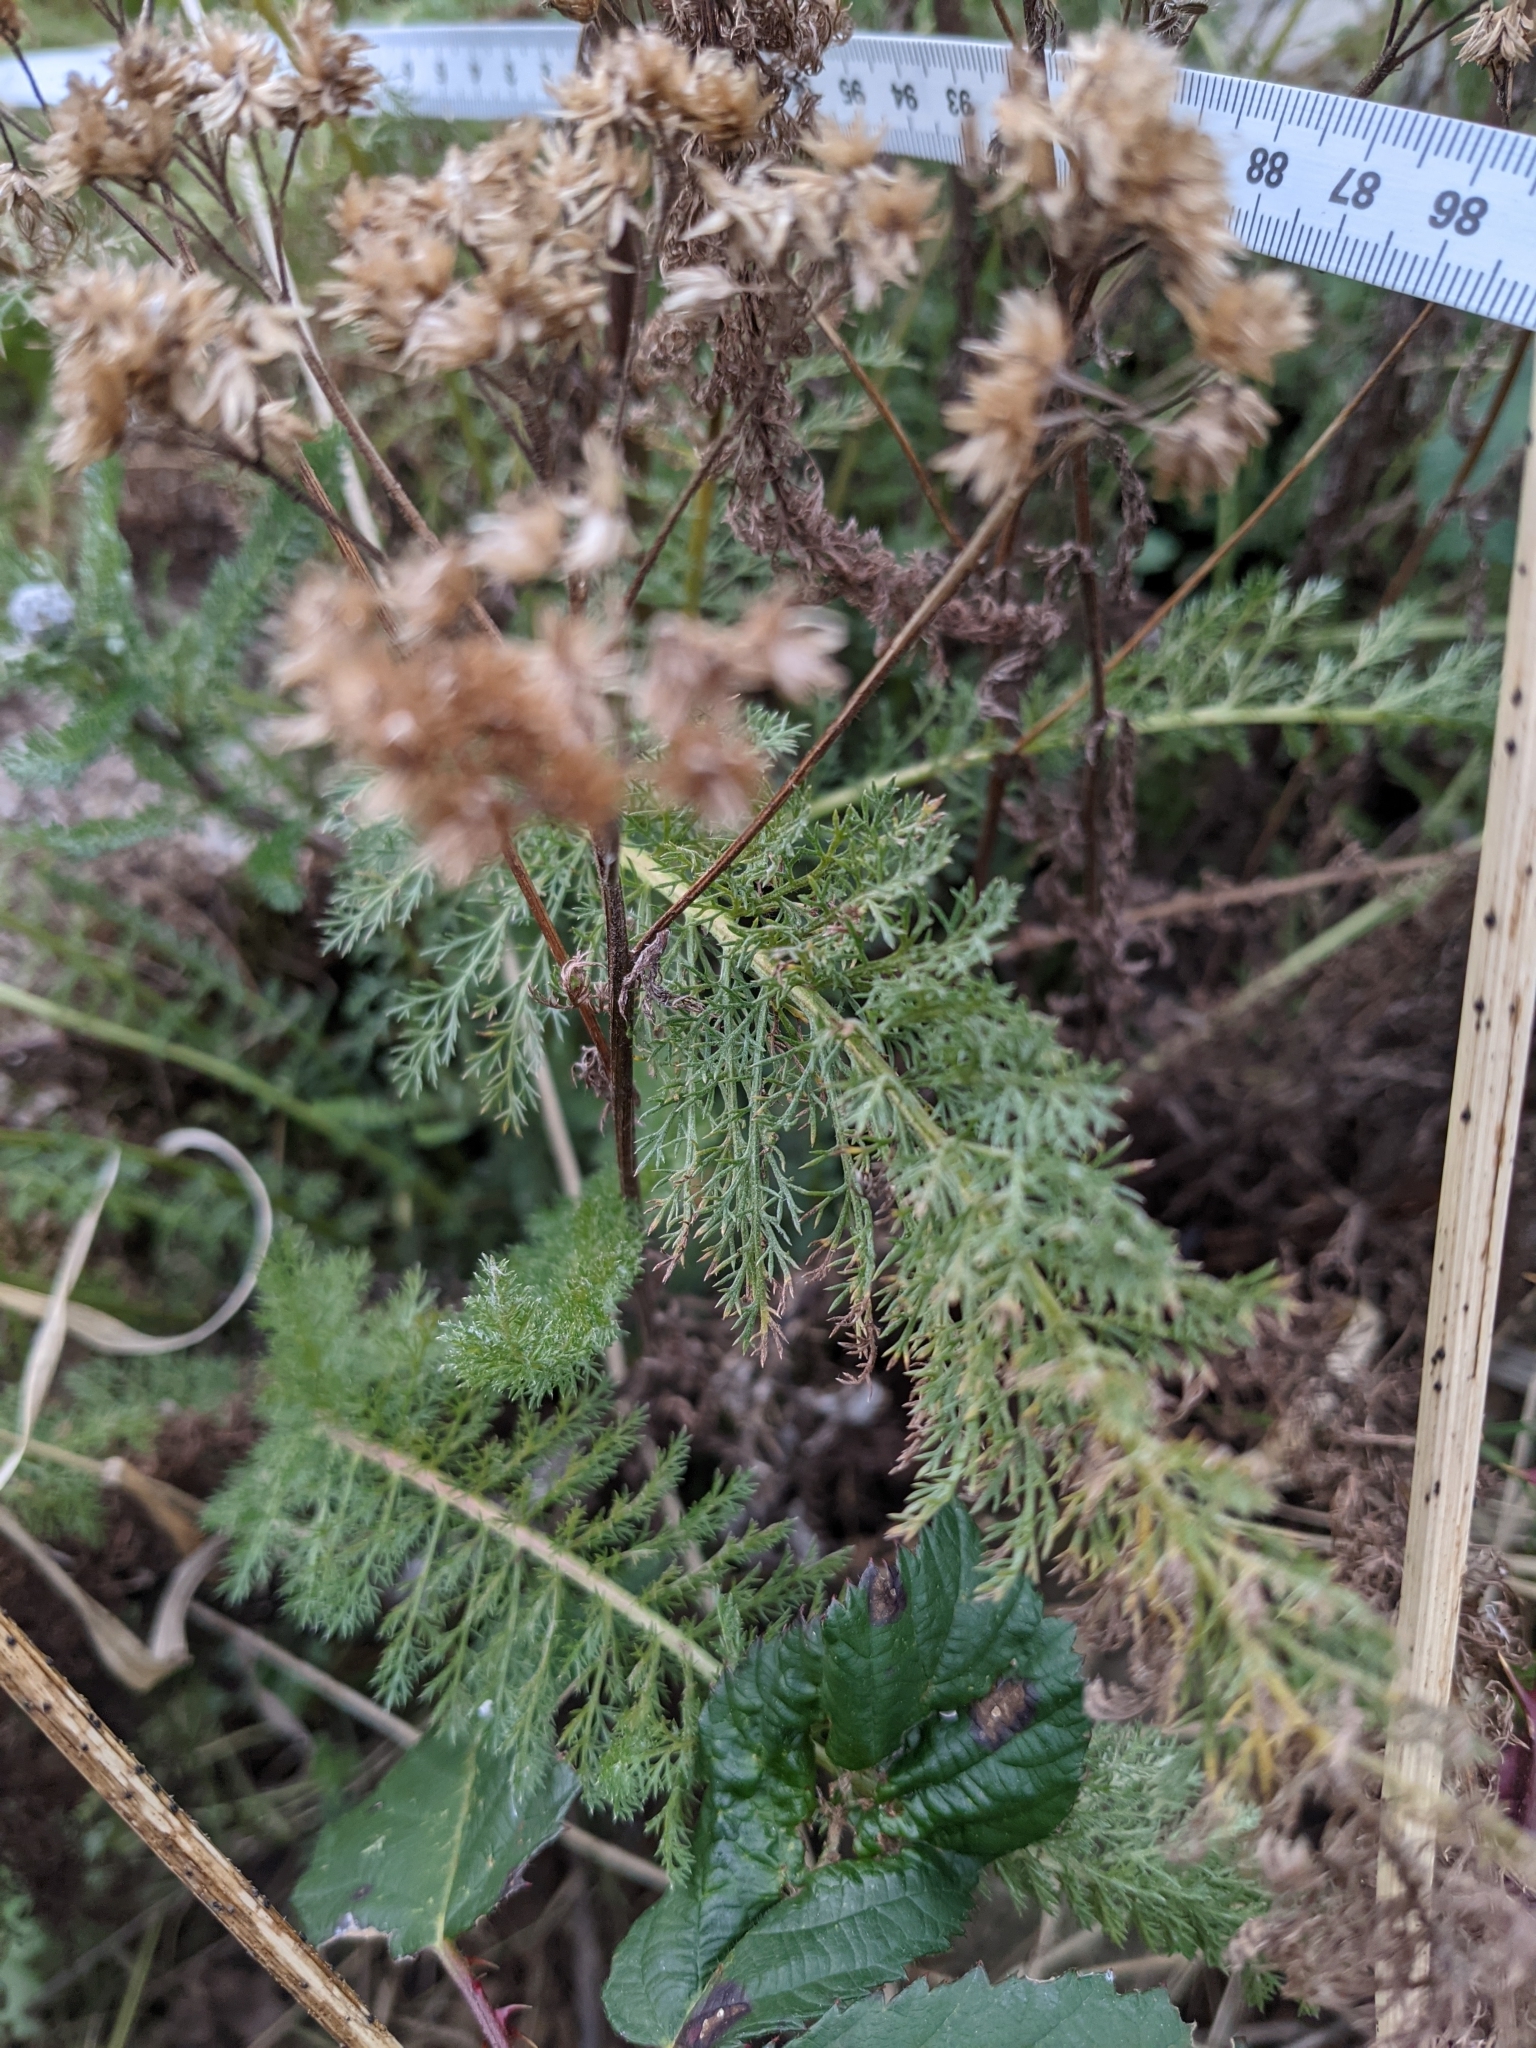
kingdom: Plantae
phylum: Tracheophyta
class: Magnoliopsida
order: Asterales
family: Asteraceae
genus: Achillea
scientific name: Achillea millefolium
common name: Yarrow
